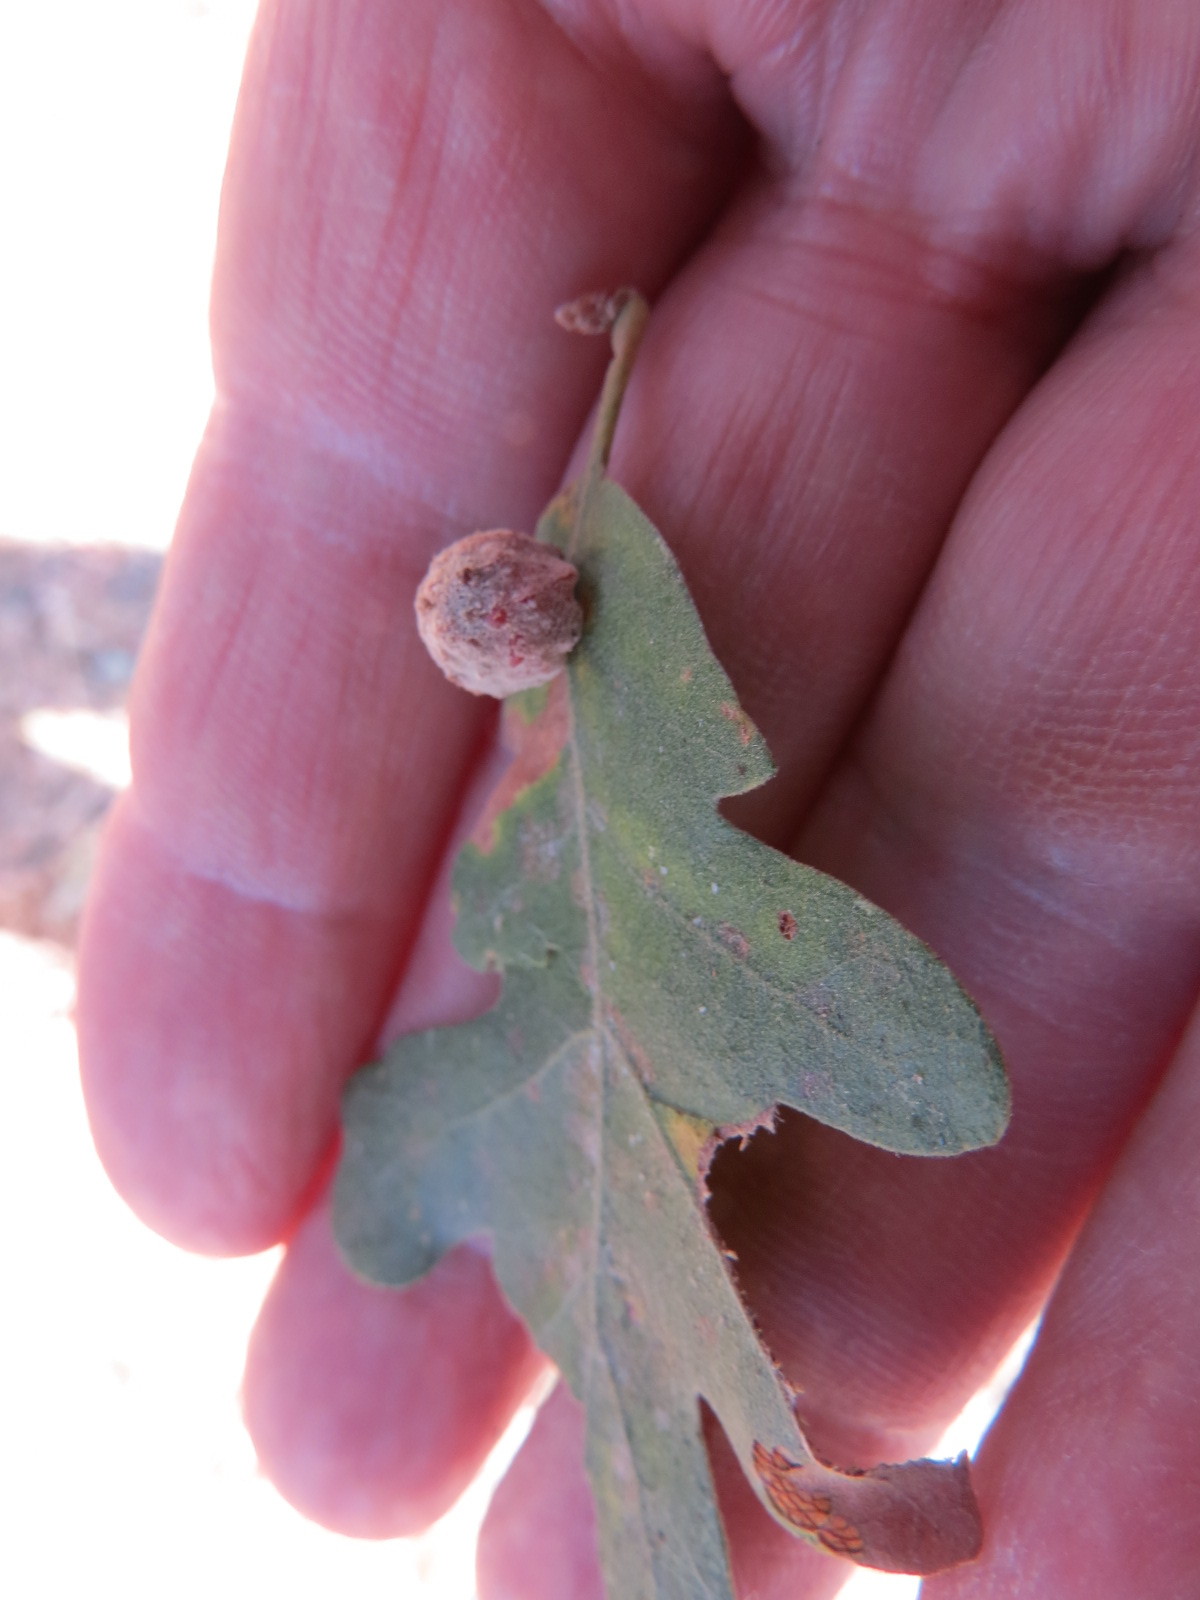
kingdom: Animalia
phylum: Arthropoda
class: Insecta
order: Hymenoptera
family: Cynipidae
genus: Cynips
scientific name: Cynips conspicua
